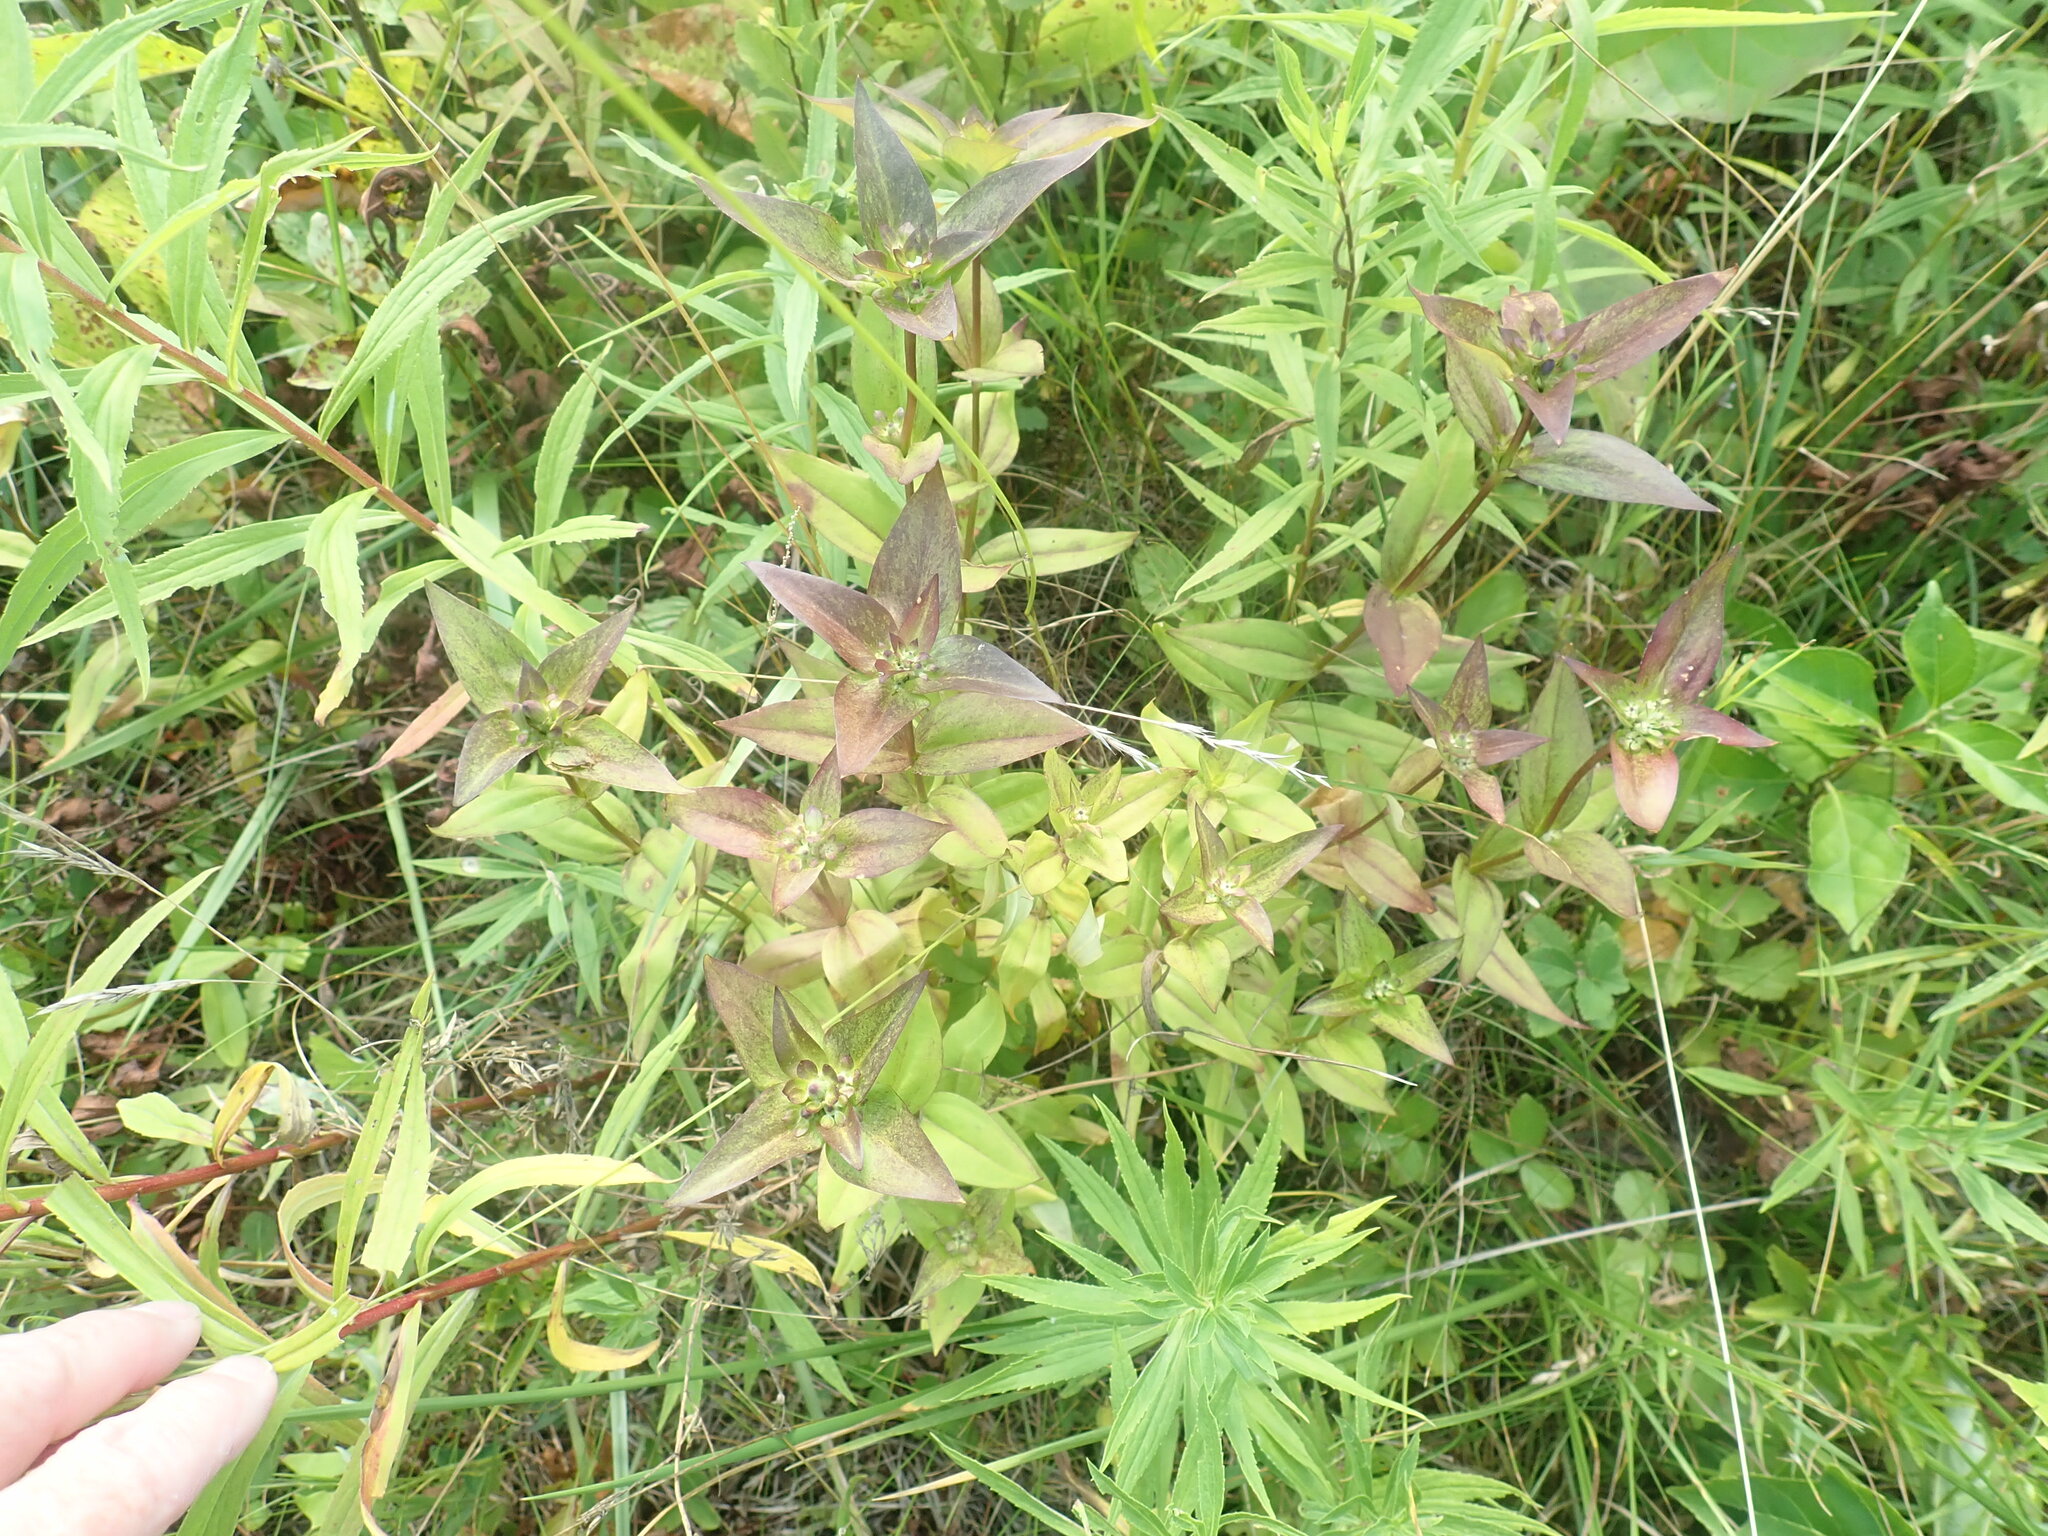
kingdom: Plantae
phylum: Tracheophyta
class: Magnoliopsida
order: Gentianales
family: Gentianaceae
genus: Gentiana
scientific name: Gentiana clausa
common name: Blind gentian
